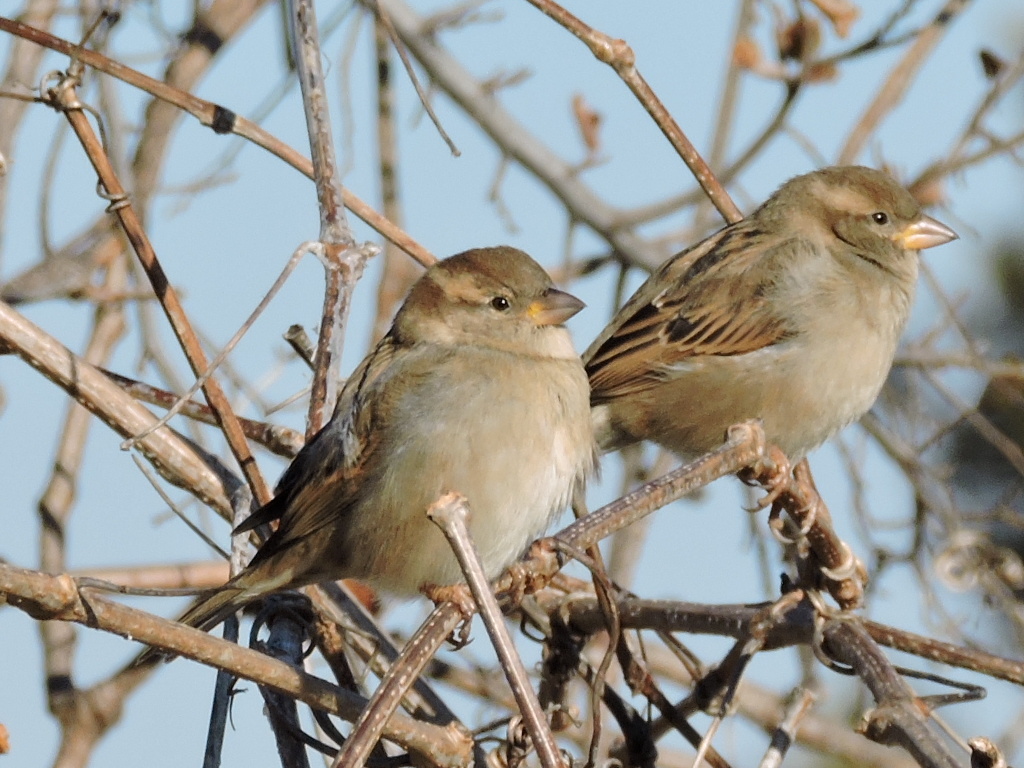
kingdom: Animalia
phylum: Chordata
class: Aves
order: Passeriformes
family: Passeridae
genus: Passer
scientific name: Passer domesticus
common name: House sparrow
